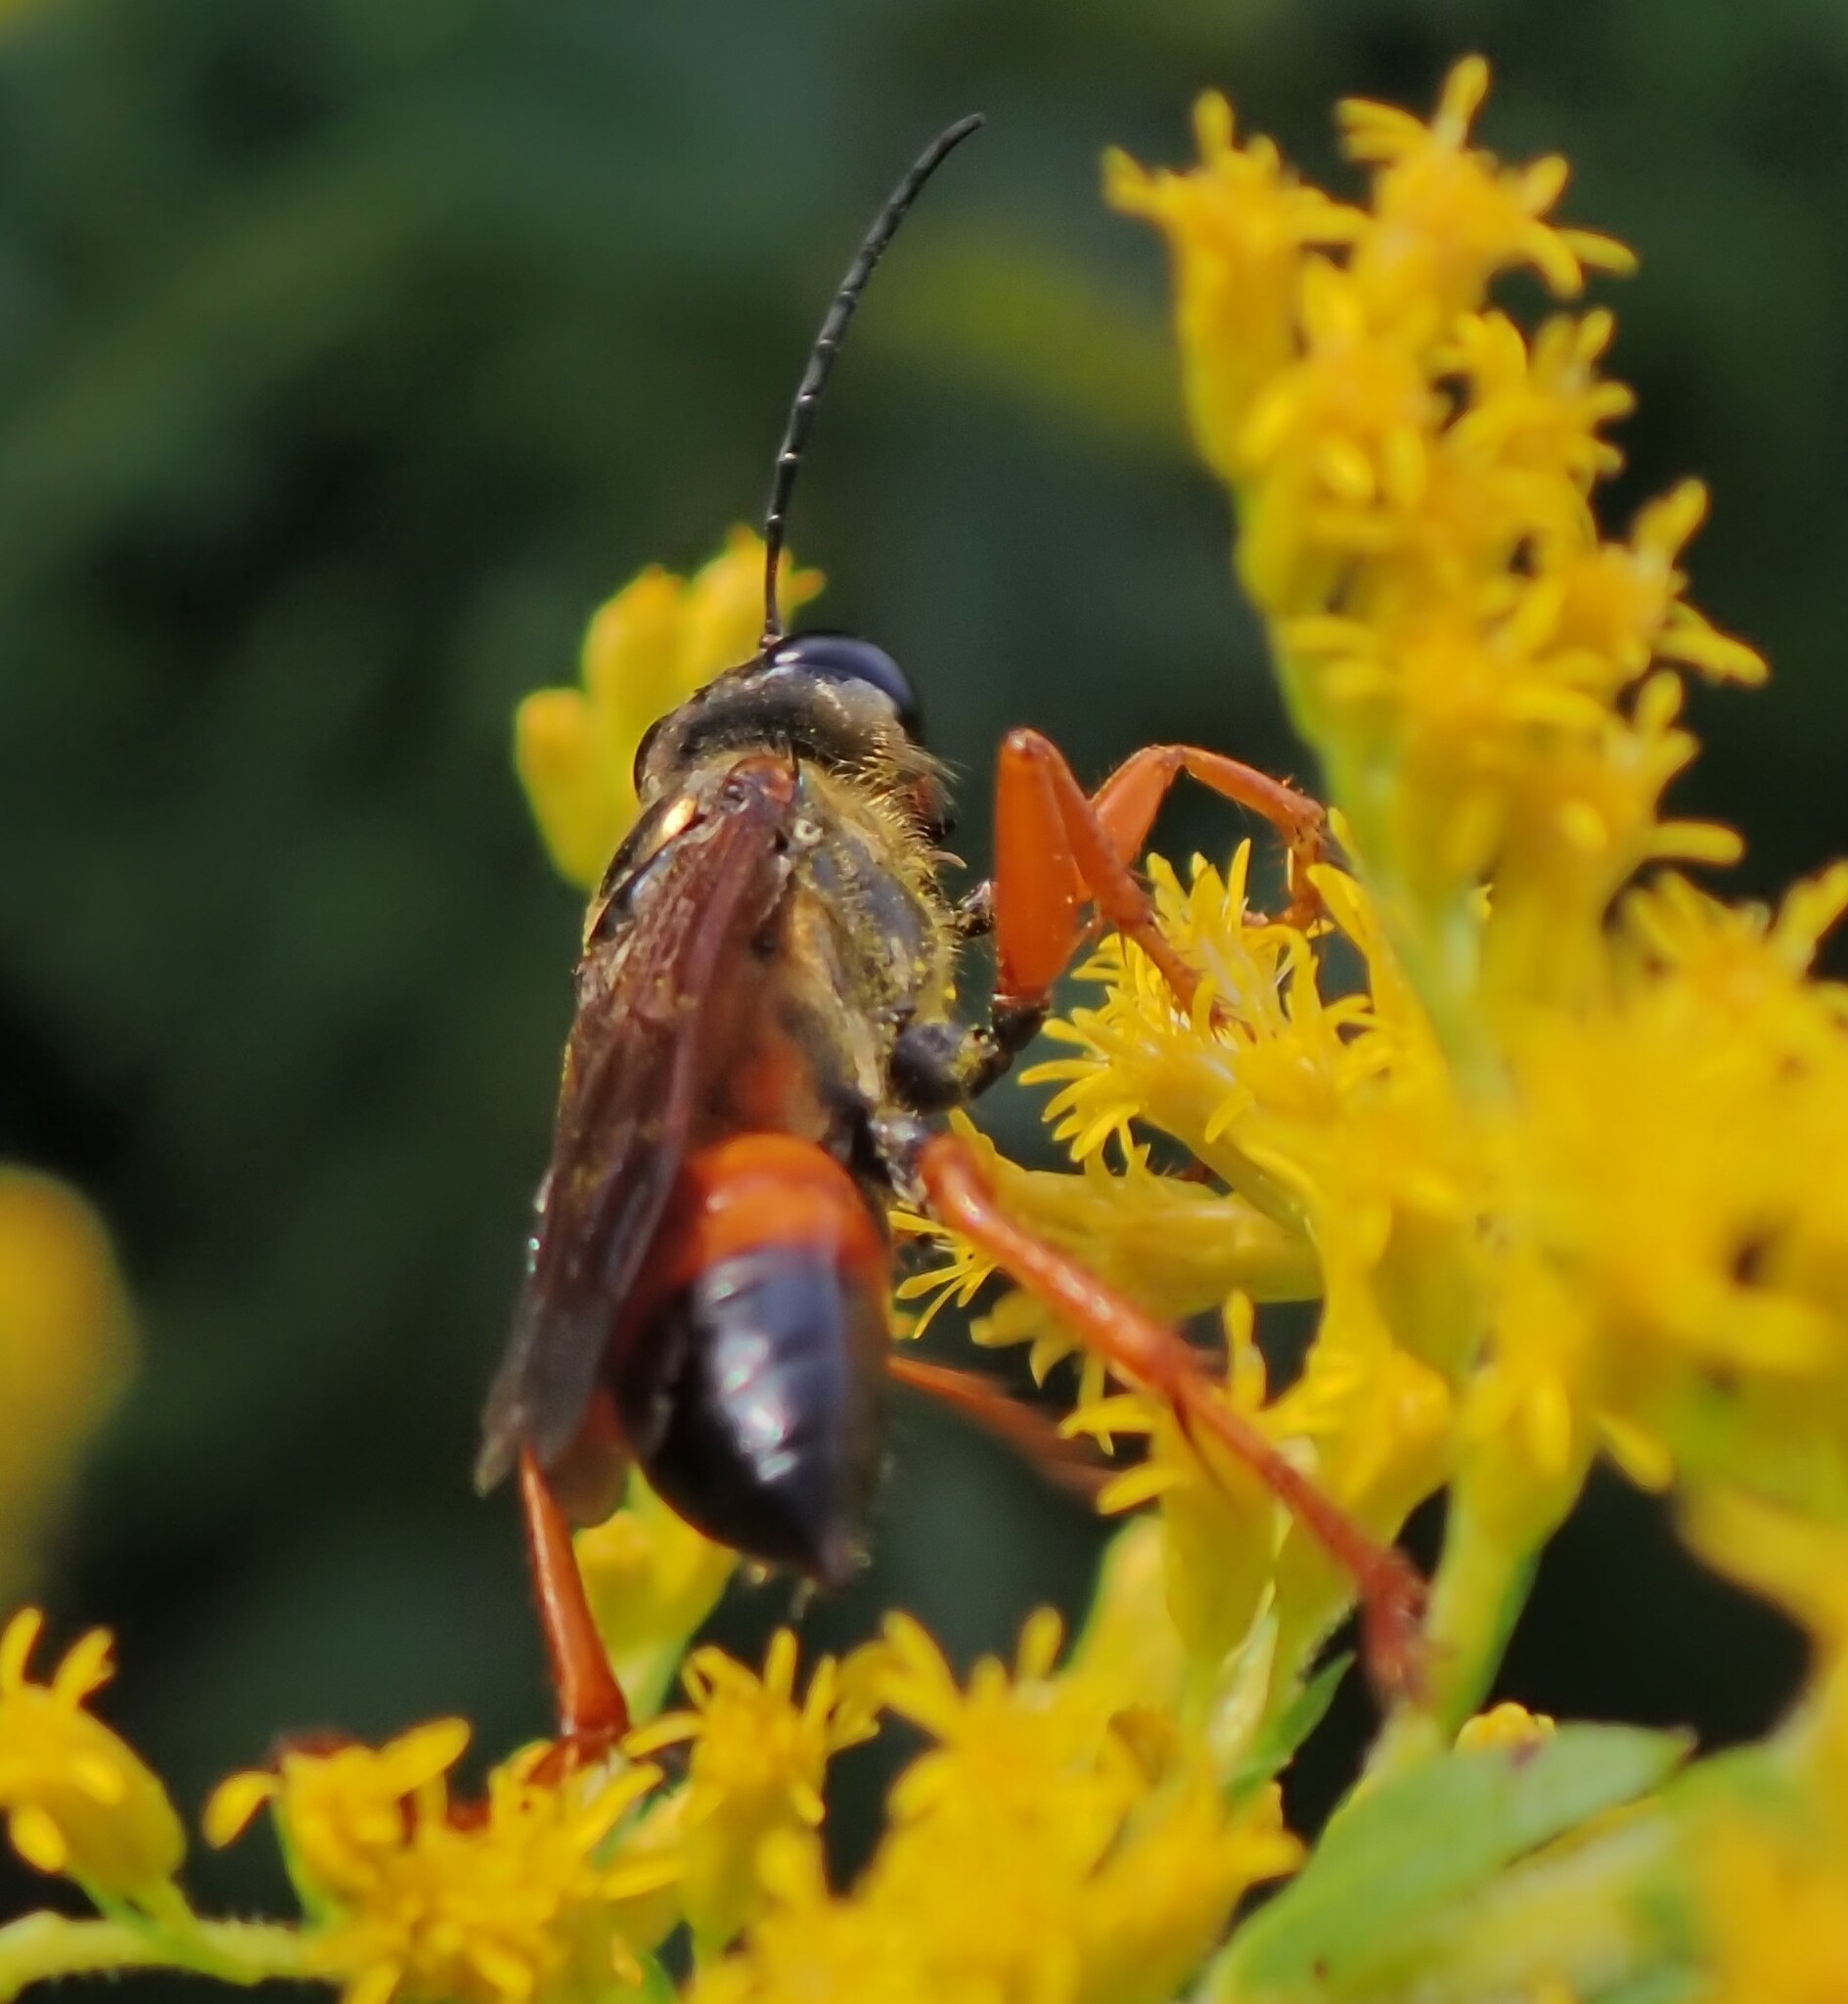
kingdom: Animalia
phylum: Arthropoda
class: Insecta
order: Hymenoptera
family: Sphecidae
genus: Sphex
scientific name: Sphex ichneumoneus
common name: Great golden digger wasp
